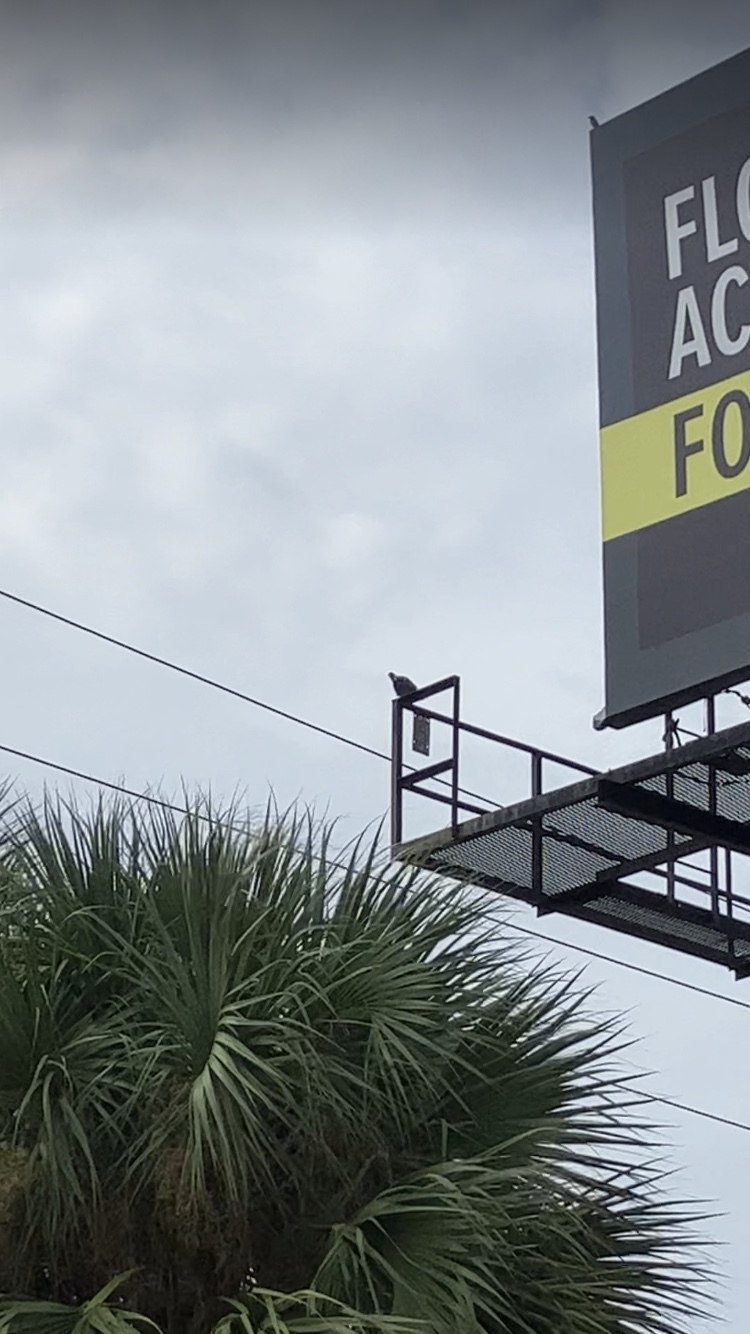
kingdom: Animalia
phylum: Chordata
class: Aves
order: Columbiformes
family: Columbidae
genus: Columba
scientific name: Columba livia
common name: Rock pigeon
